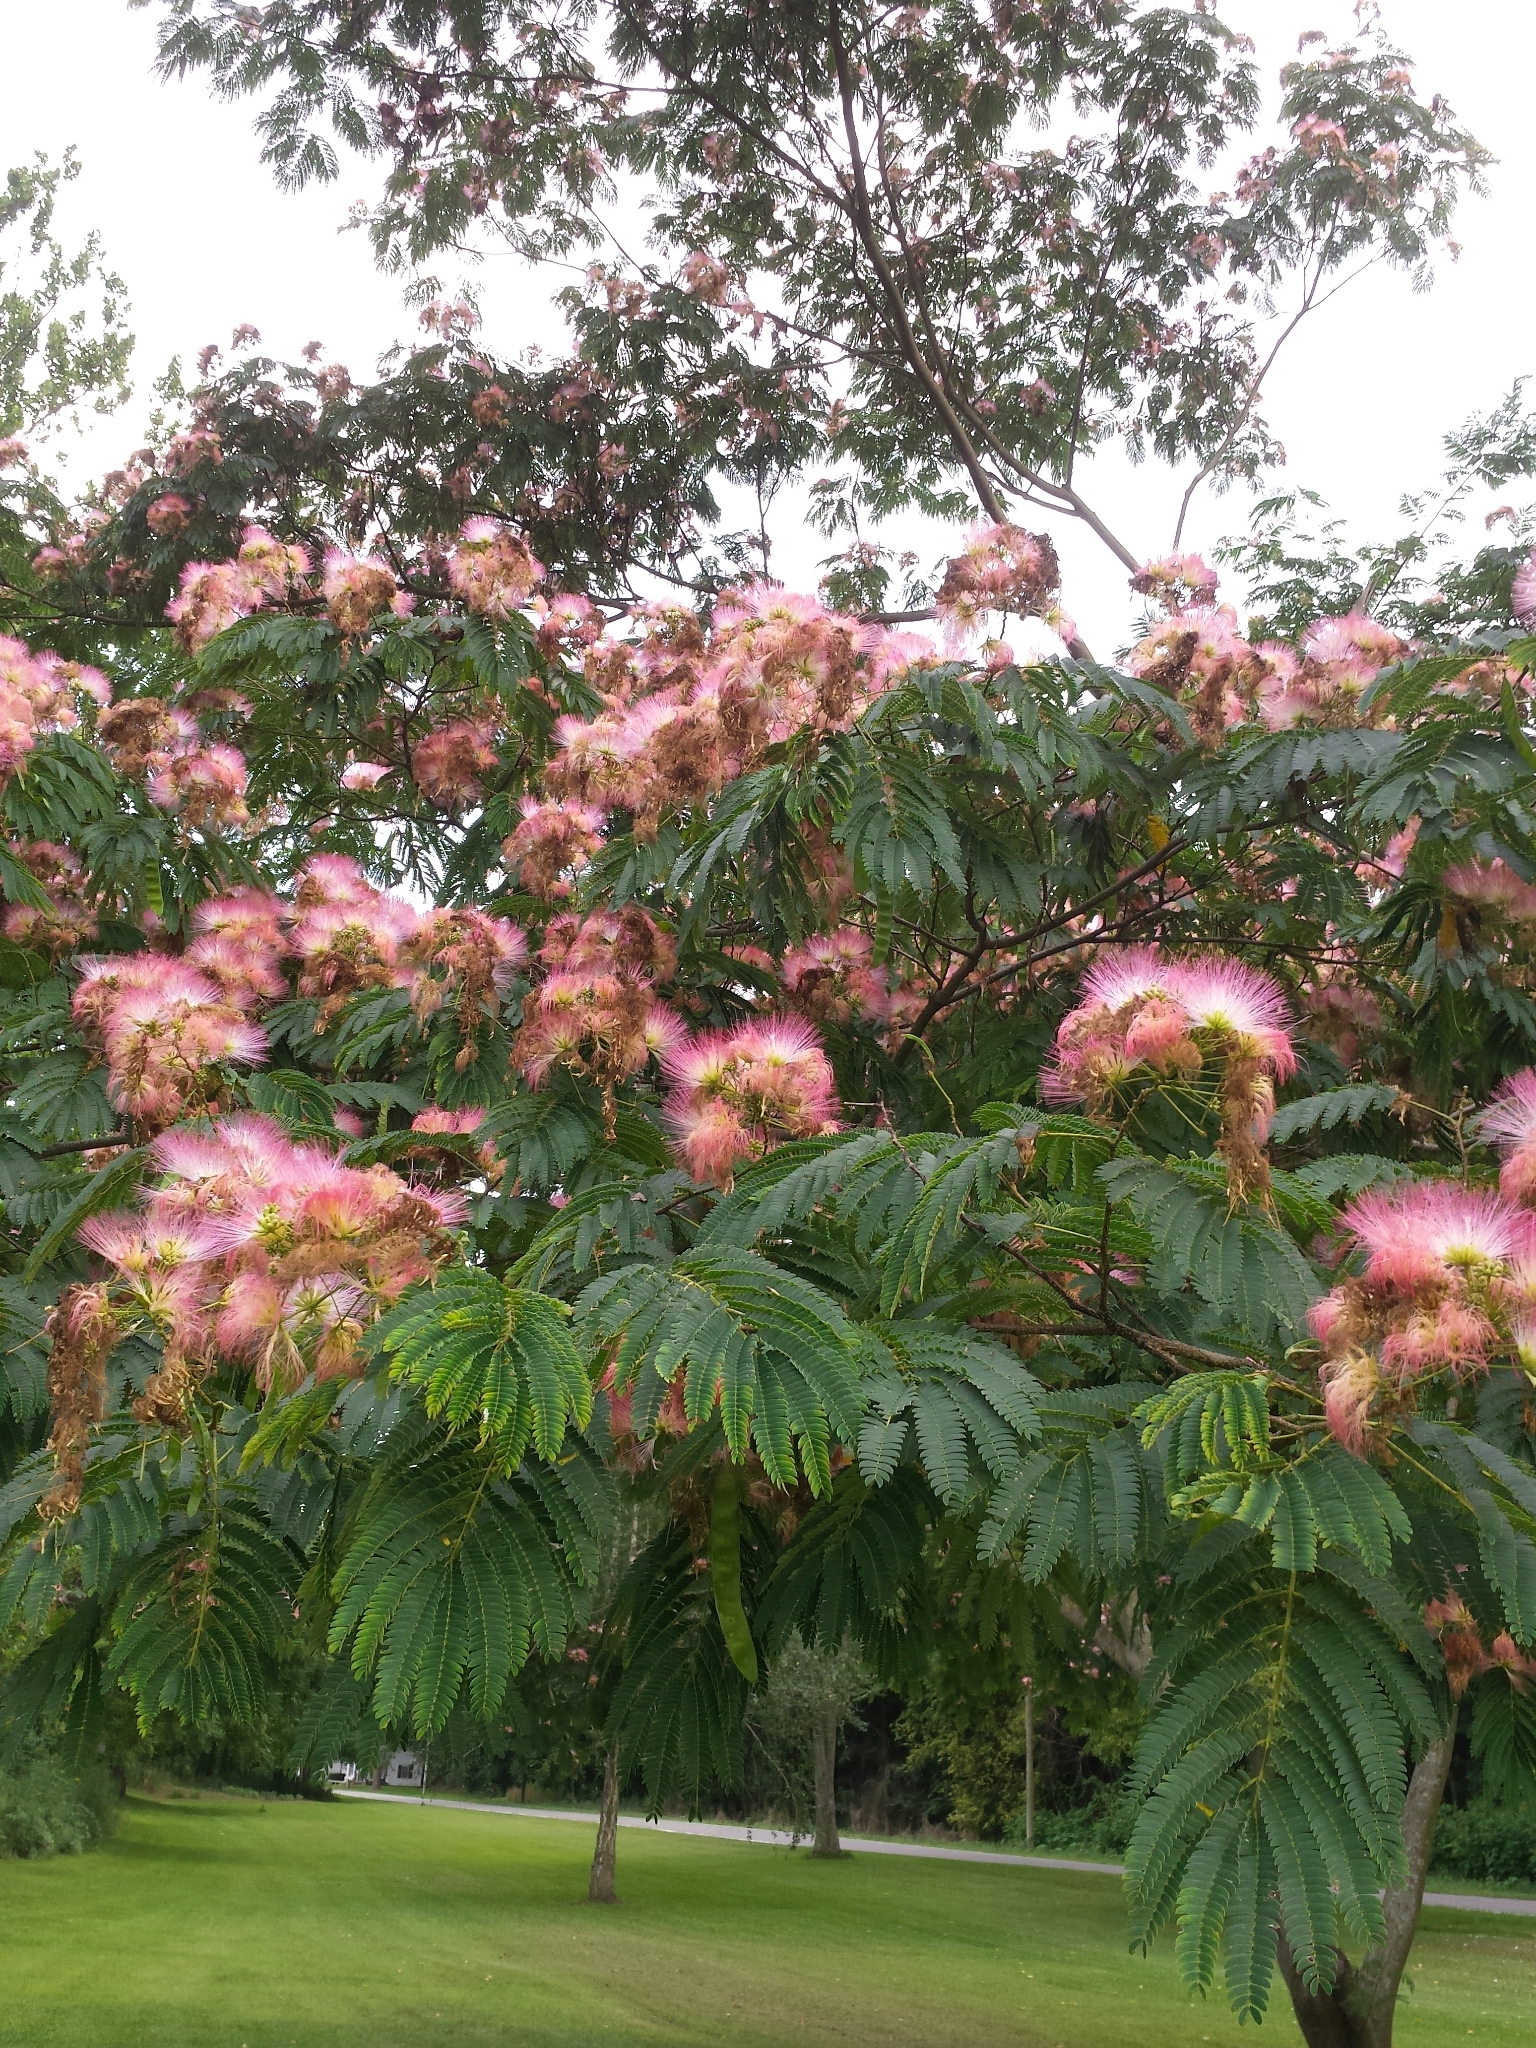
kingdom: Plantae
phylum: Tracheophyta
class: Magnoliopsida
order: Fabales
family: Fabaceae
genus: Albizia
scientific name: Albizia julibrissin
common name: Silktree
